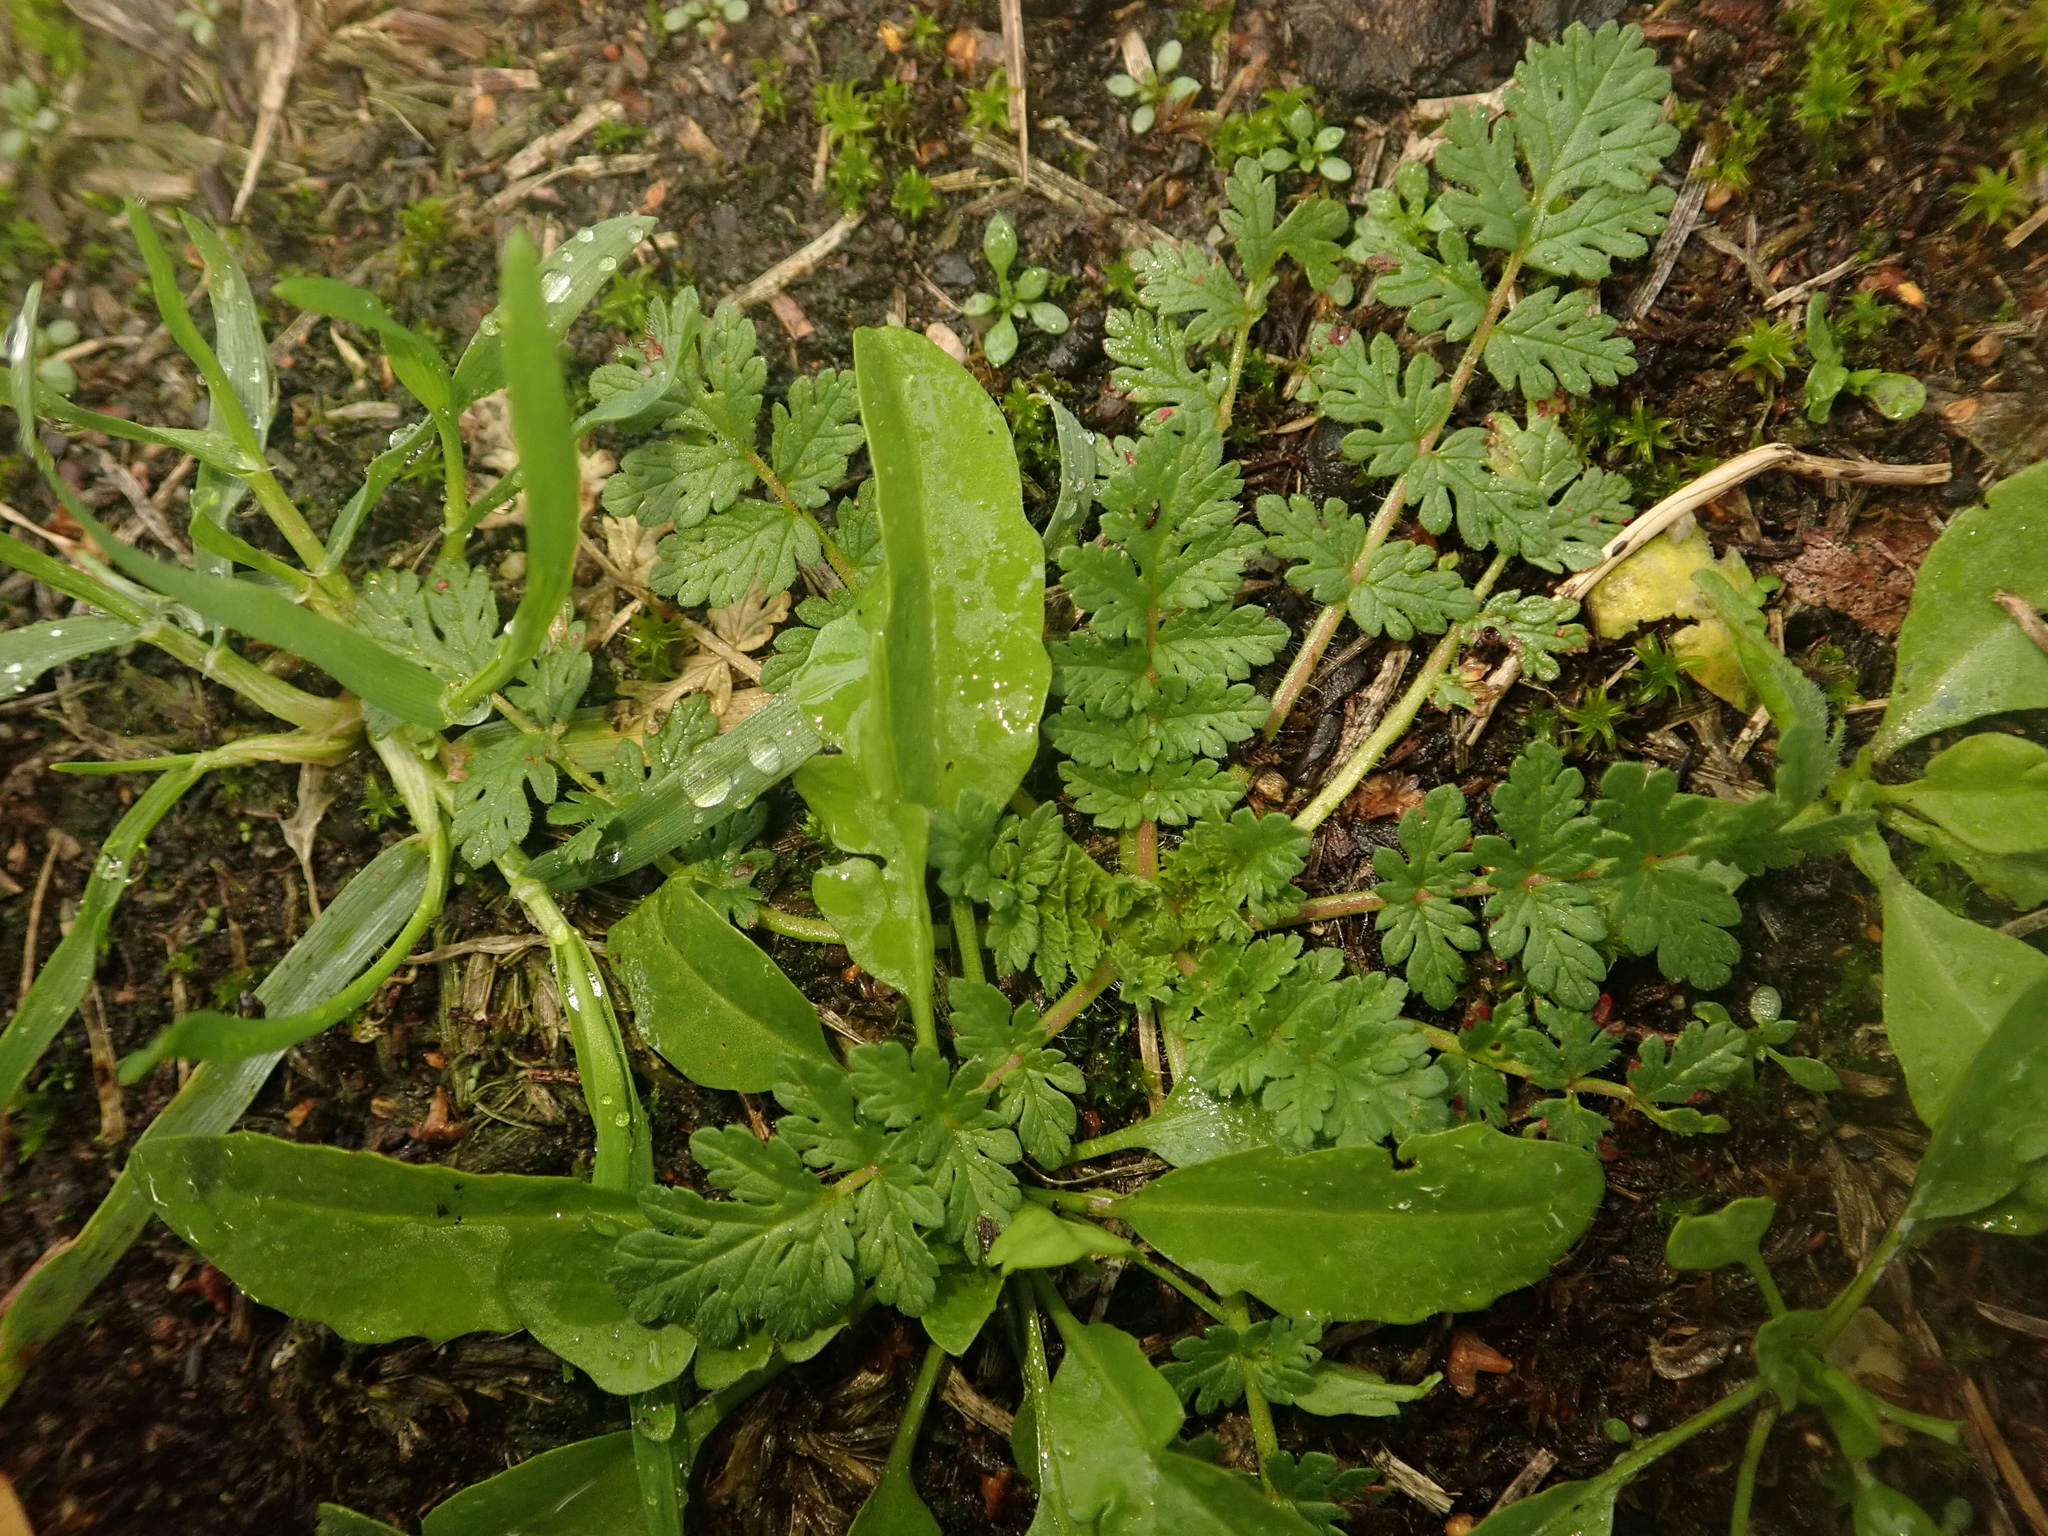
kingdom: Plantae
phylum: Tracheophyta
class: Magnoliopsida
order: Geraniales
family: Geraniaceae
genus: Erodium
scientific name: Erodium cicutarium
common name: Common stork's-bill
